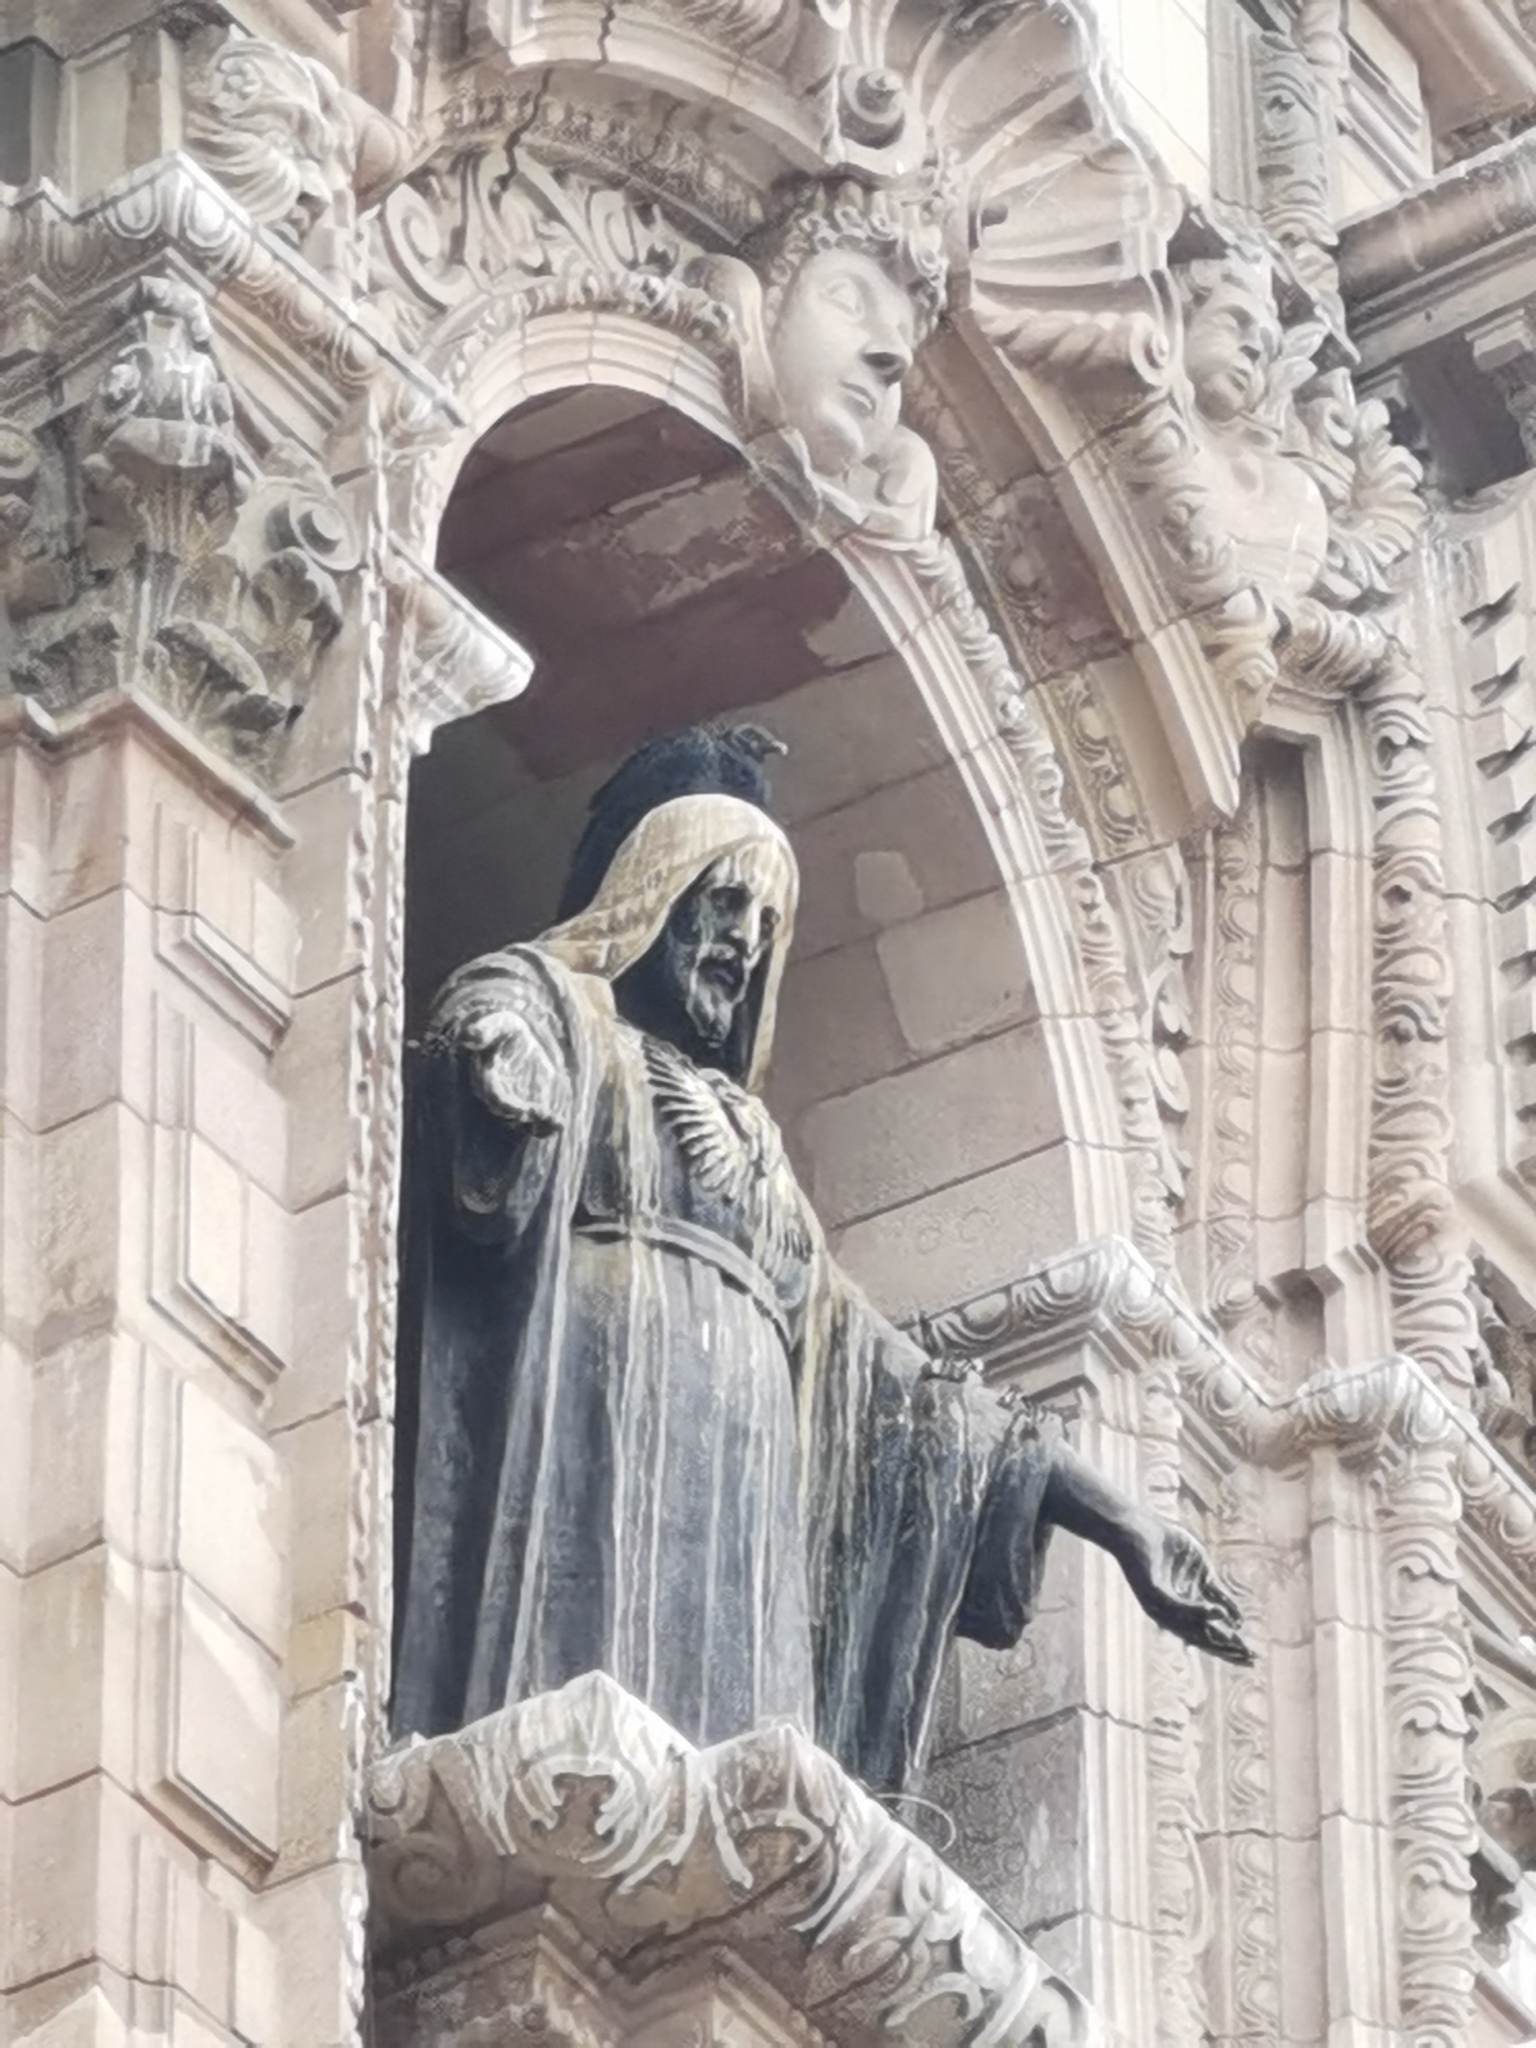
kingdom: Animalia
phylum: Chordata
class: Aves
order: Accipitriformes
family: Cathartidae
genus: Coragyps
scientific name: Coragyps atratus
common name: Black vulture
